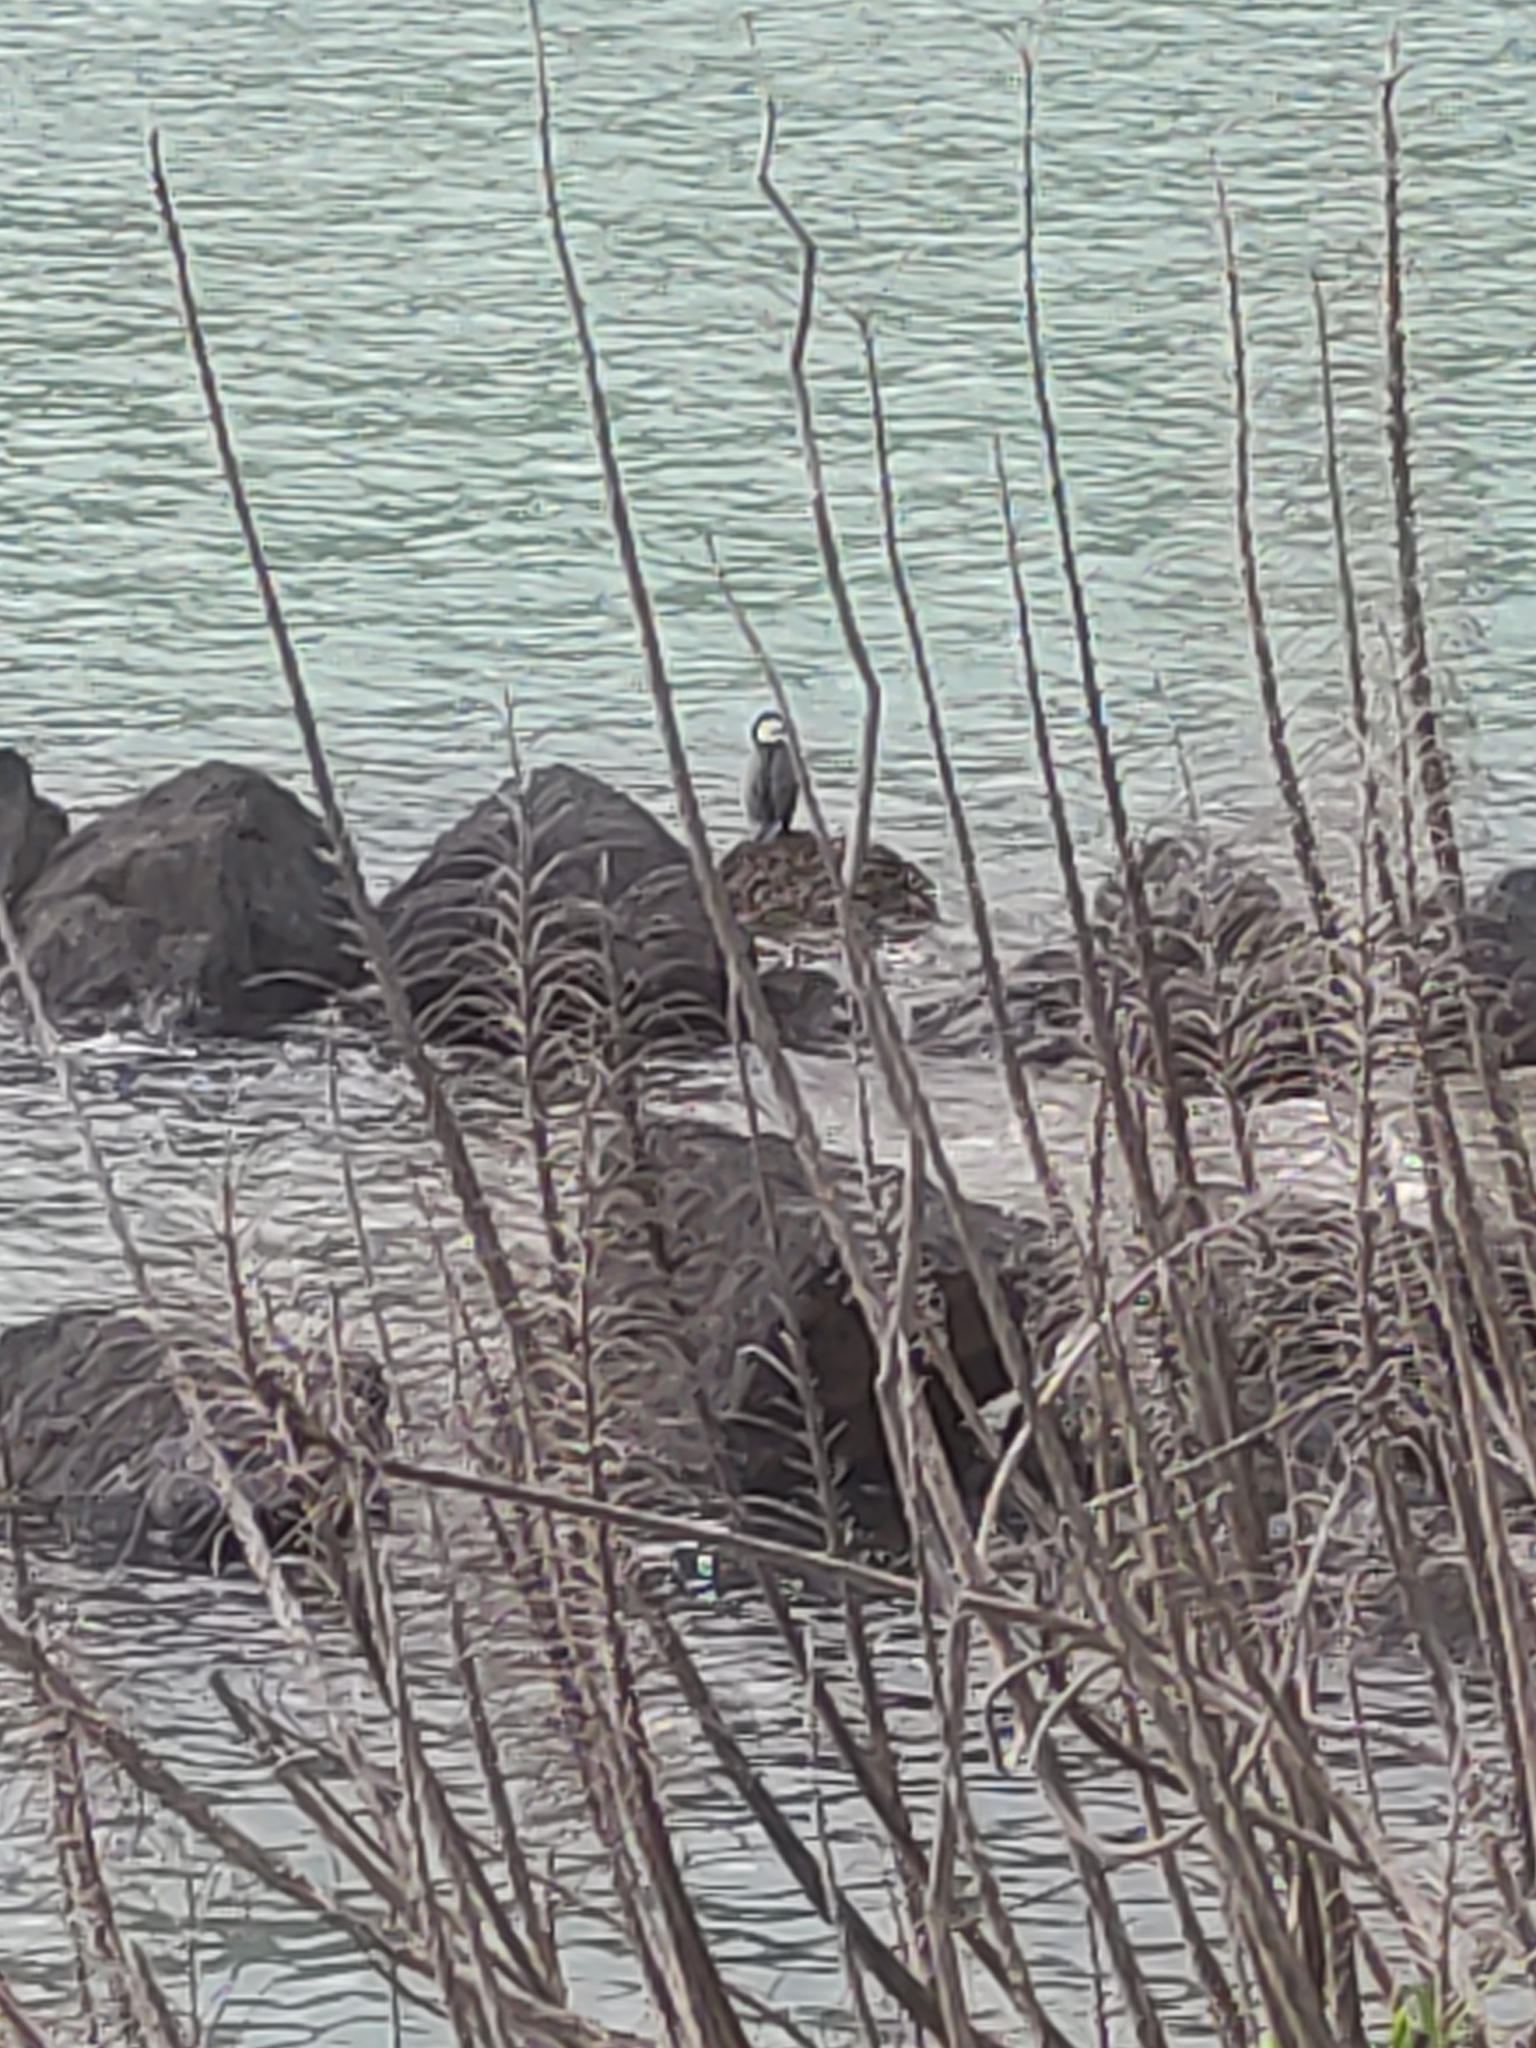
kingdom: Animalia
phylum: Chordata
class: Aves
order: Suliformes
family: Phalacrocoracidae
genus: Phalacrocorax
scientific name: Phalacrocorax varius
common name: Pied cormorant
